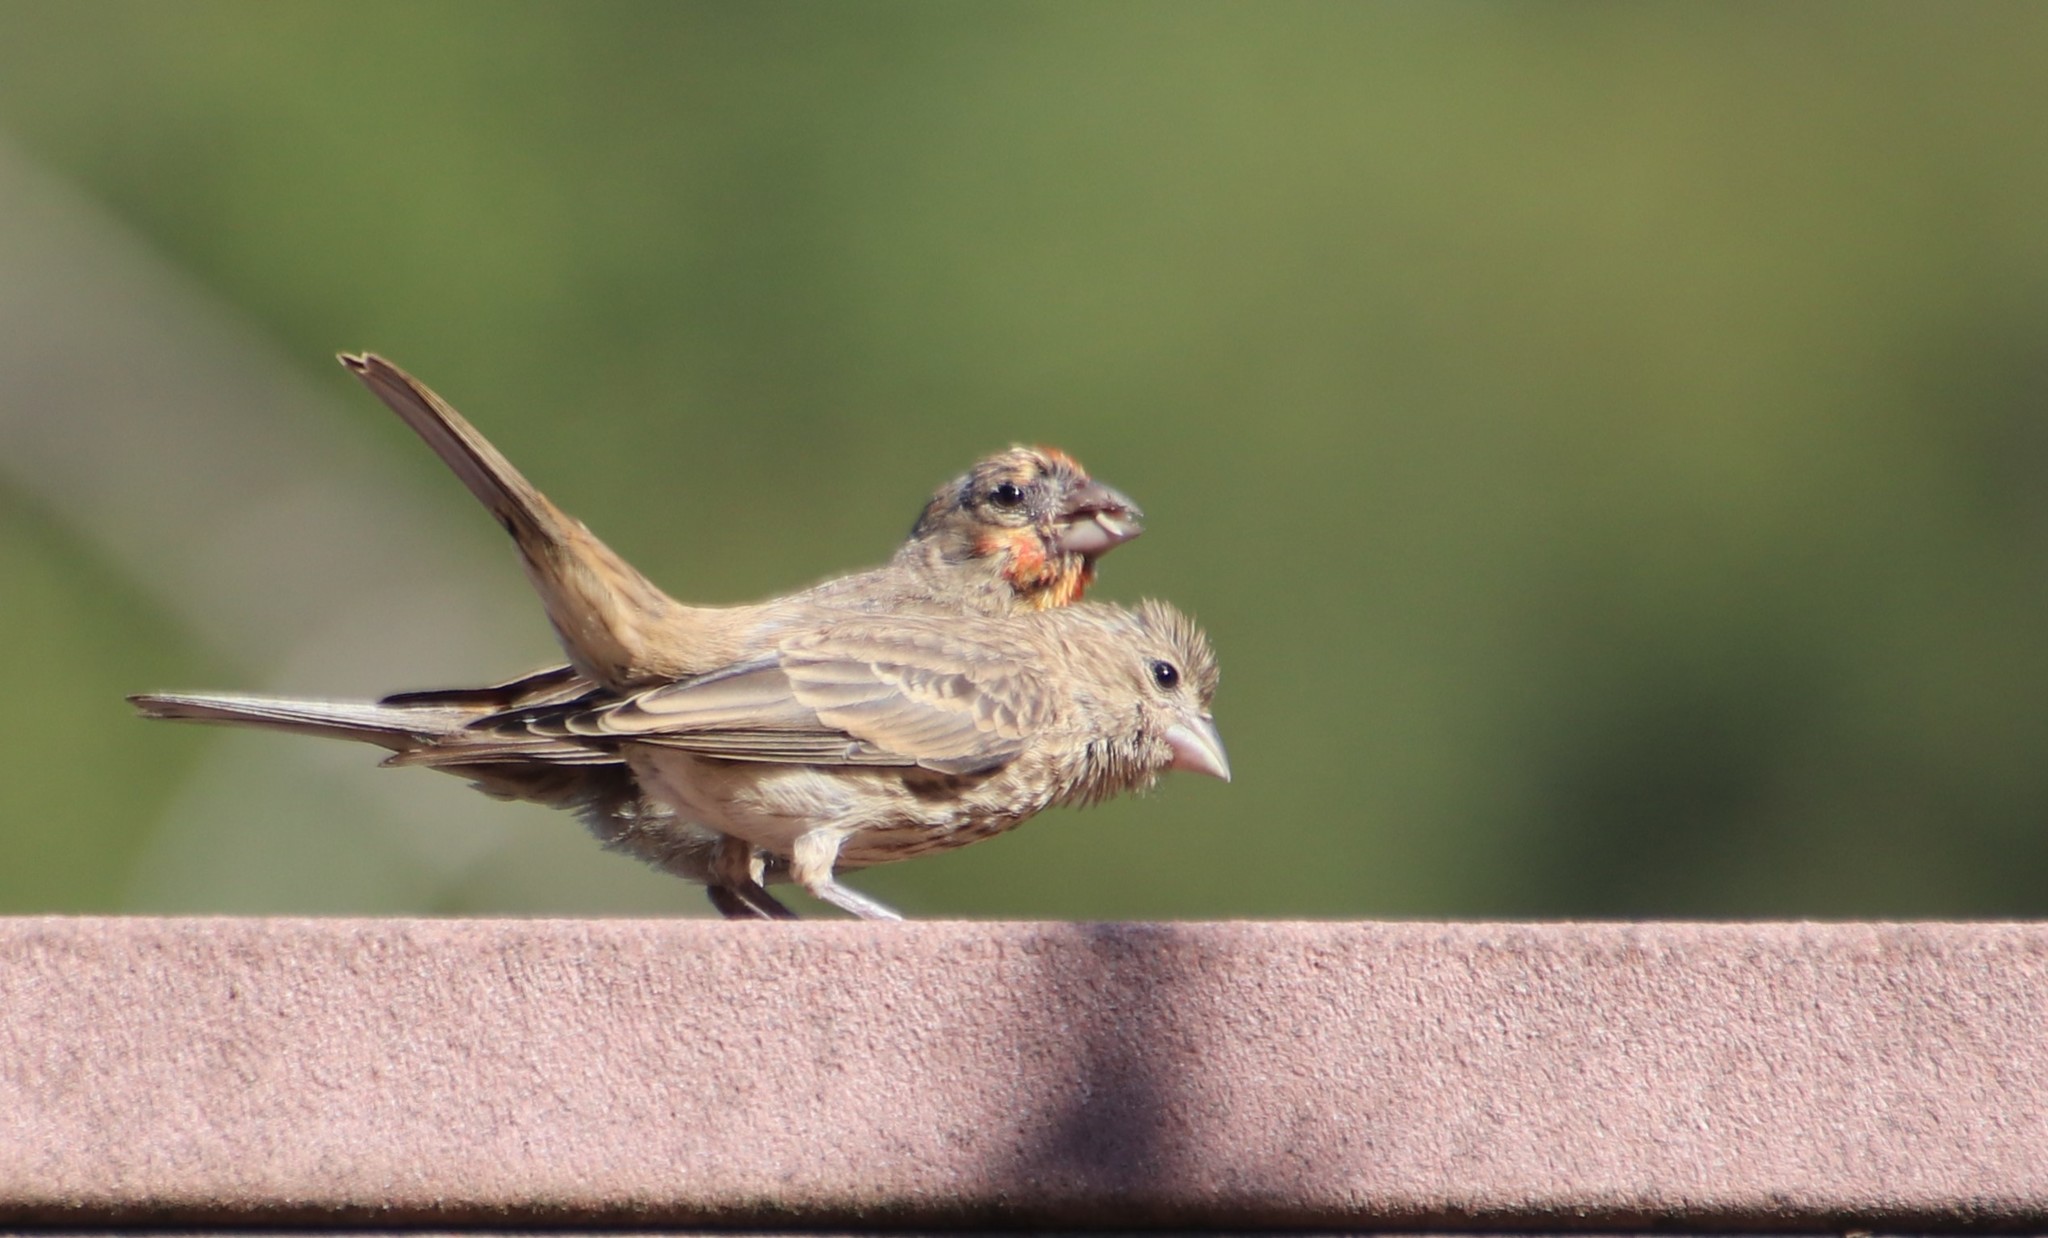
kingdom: Animalia
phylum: Chordata
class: Aves
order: Passeriformes
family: Fringillidae
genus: Haemorhous
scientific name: Haemorhous mexicanus
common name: House finch
